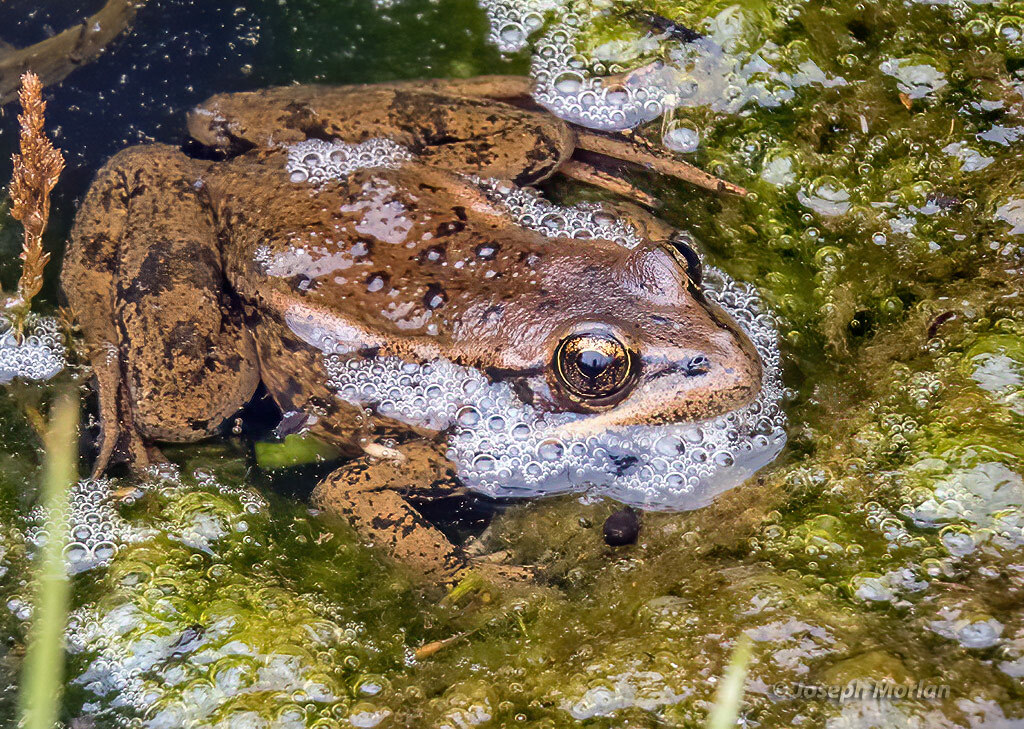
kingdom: Animalia
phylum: Chordata
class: Amphibia
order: Anura
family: Ranidae
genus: Rana
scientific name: Rana draytonii
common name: California red-legged frog
